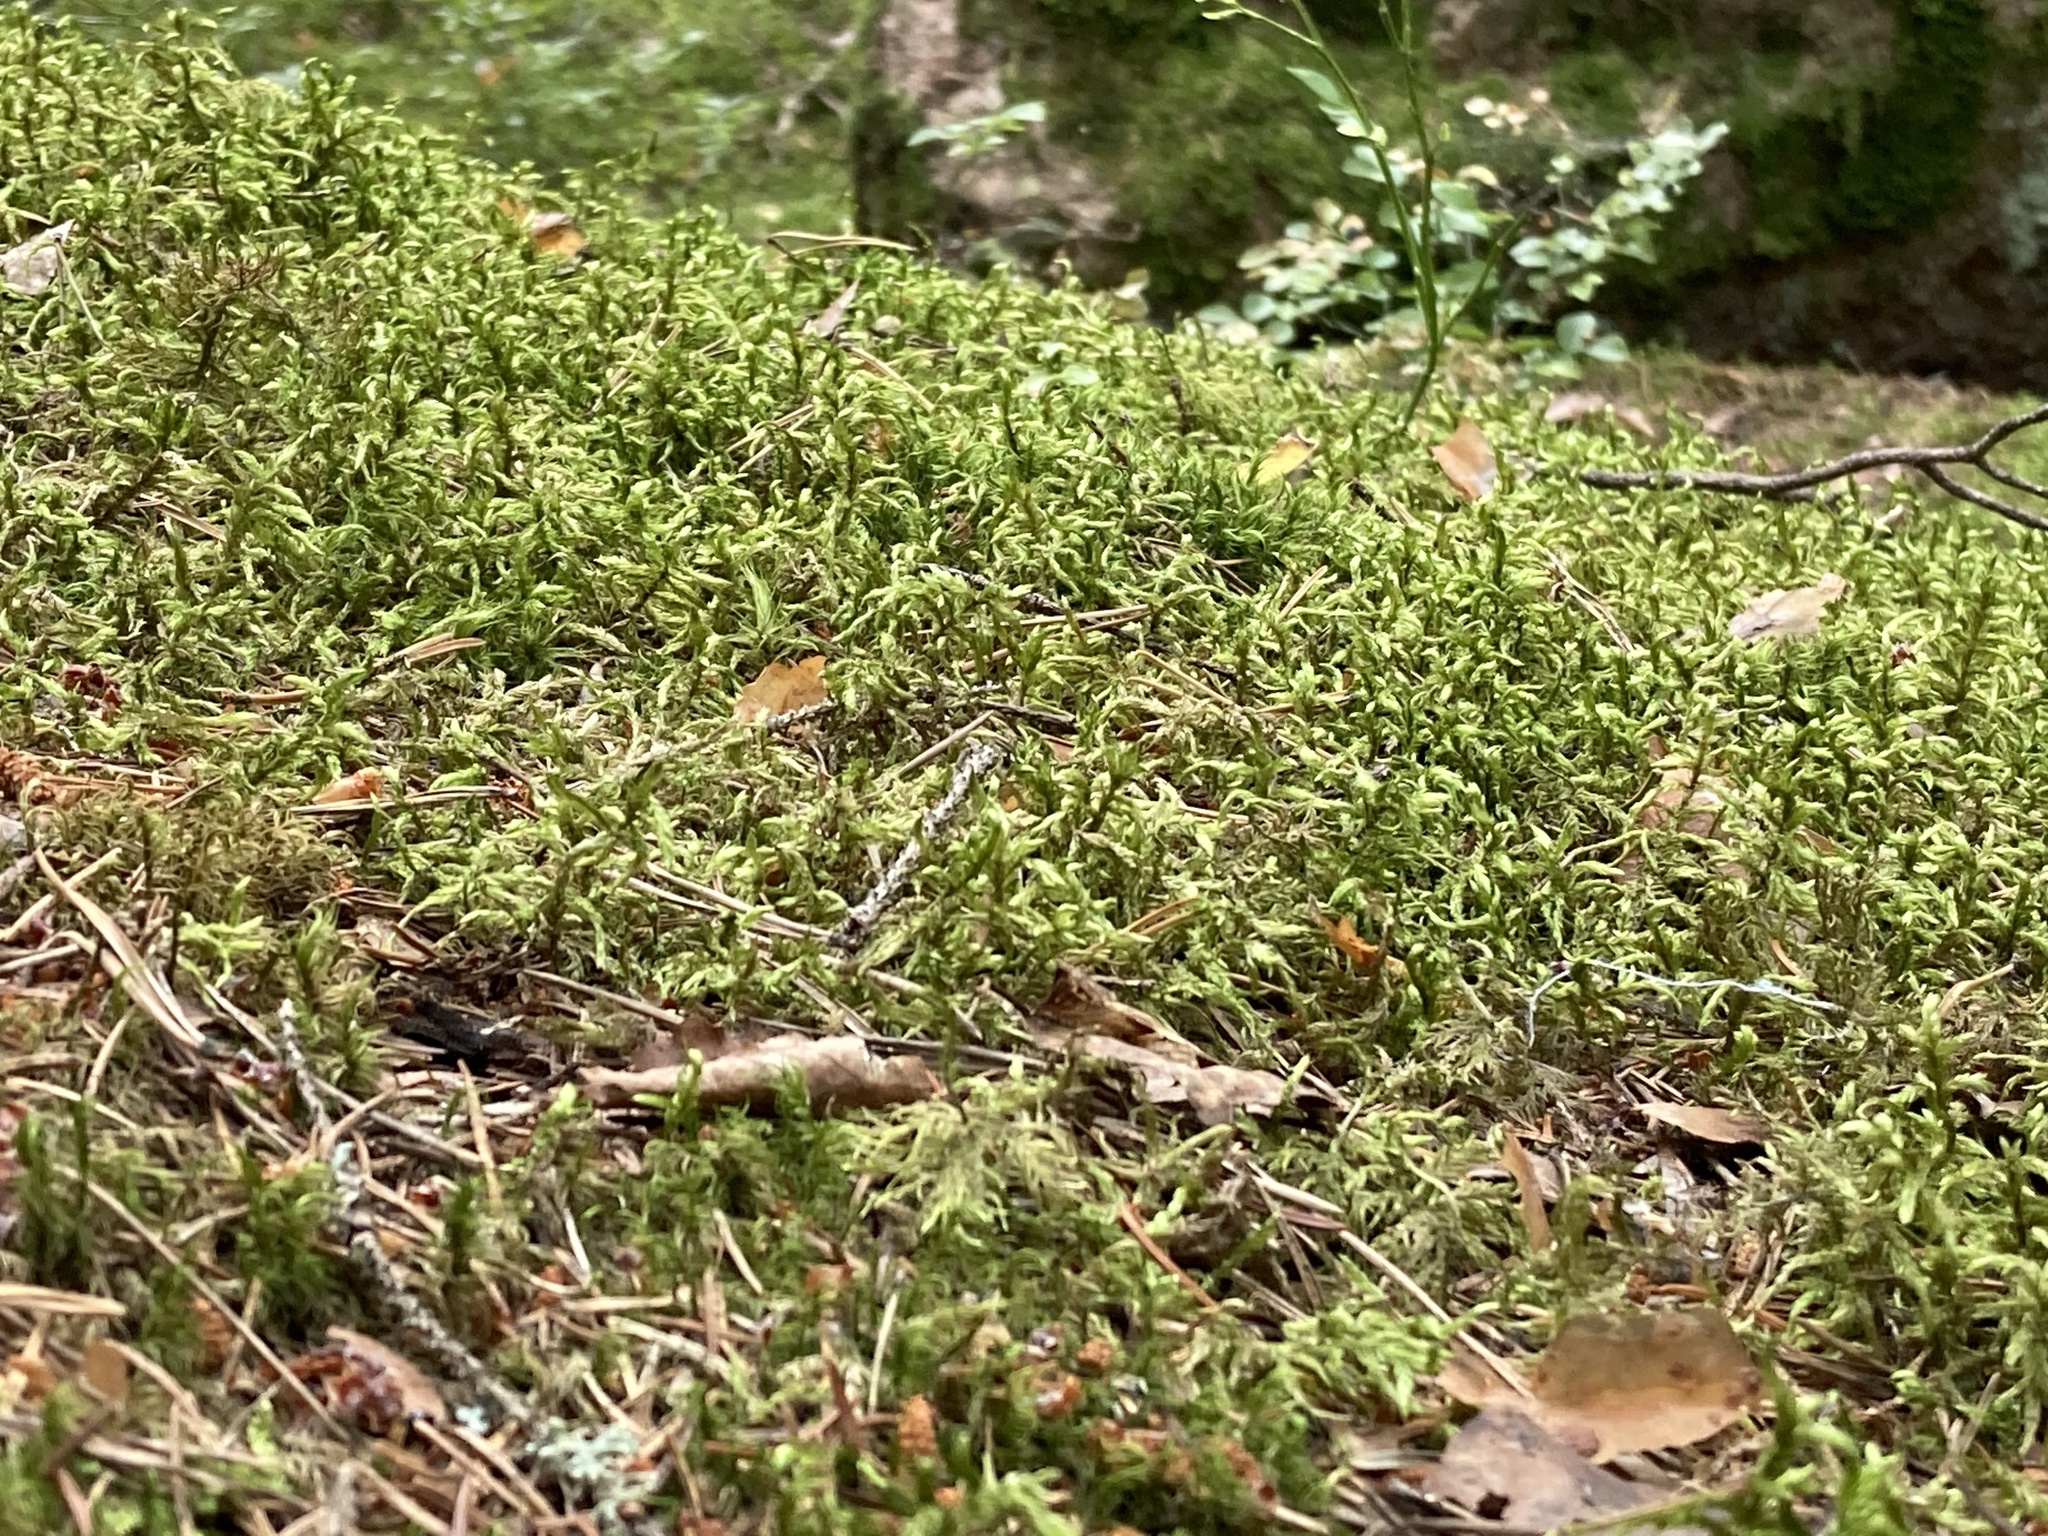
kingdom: Plantae
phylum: Bryophyta
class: Bryopsida
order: Hypnales
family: Hylocomiaceae
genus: Pleurozium
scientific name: Pleurozium schreberi
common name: Red-stemmed feather moss
